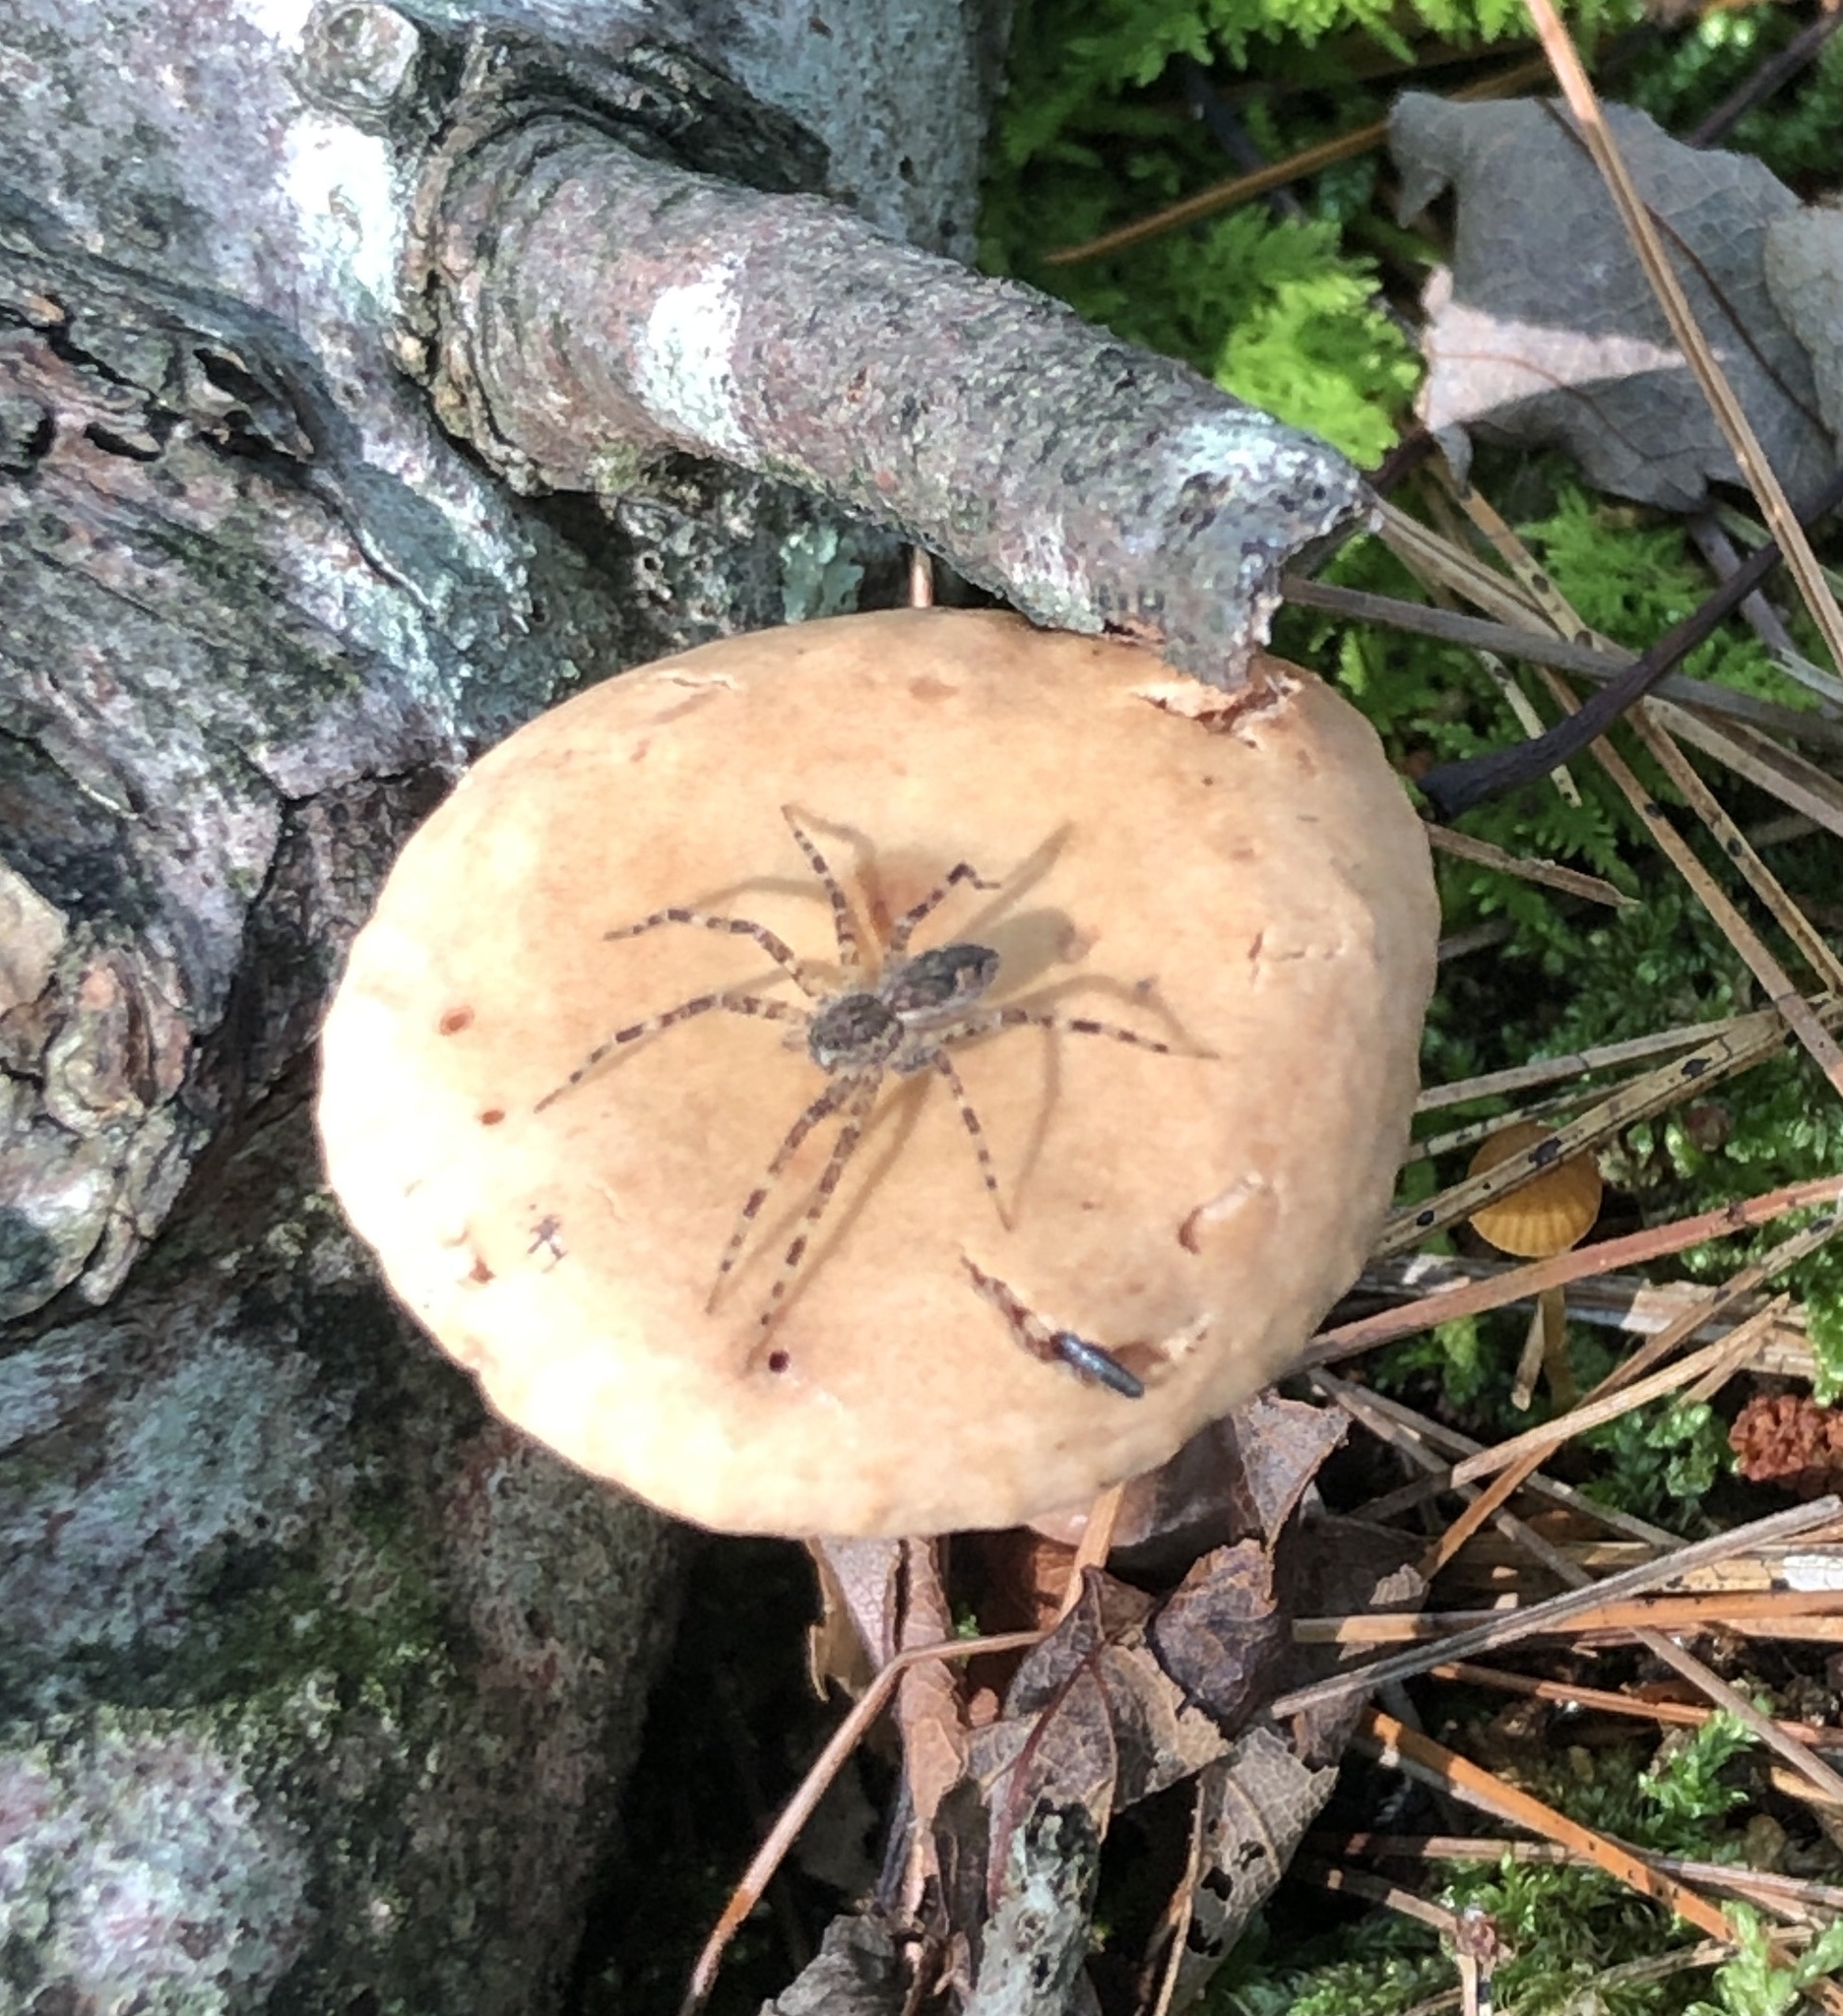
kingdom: Animalia
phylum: Arthropoda
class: Arachnida
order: Araneae
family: Pisauridae
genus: Dolomedes
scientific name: Dolomedes tenebrosus
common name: Dark fishing spider
